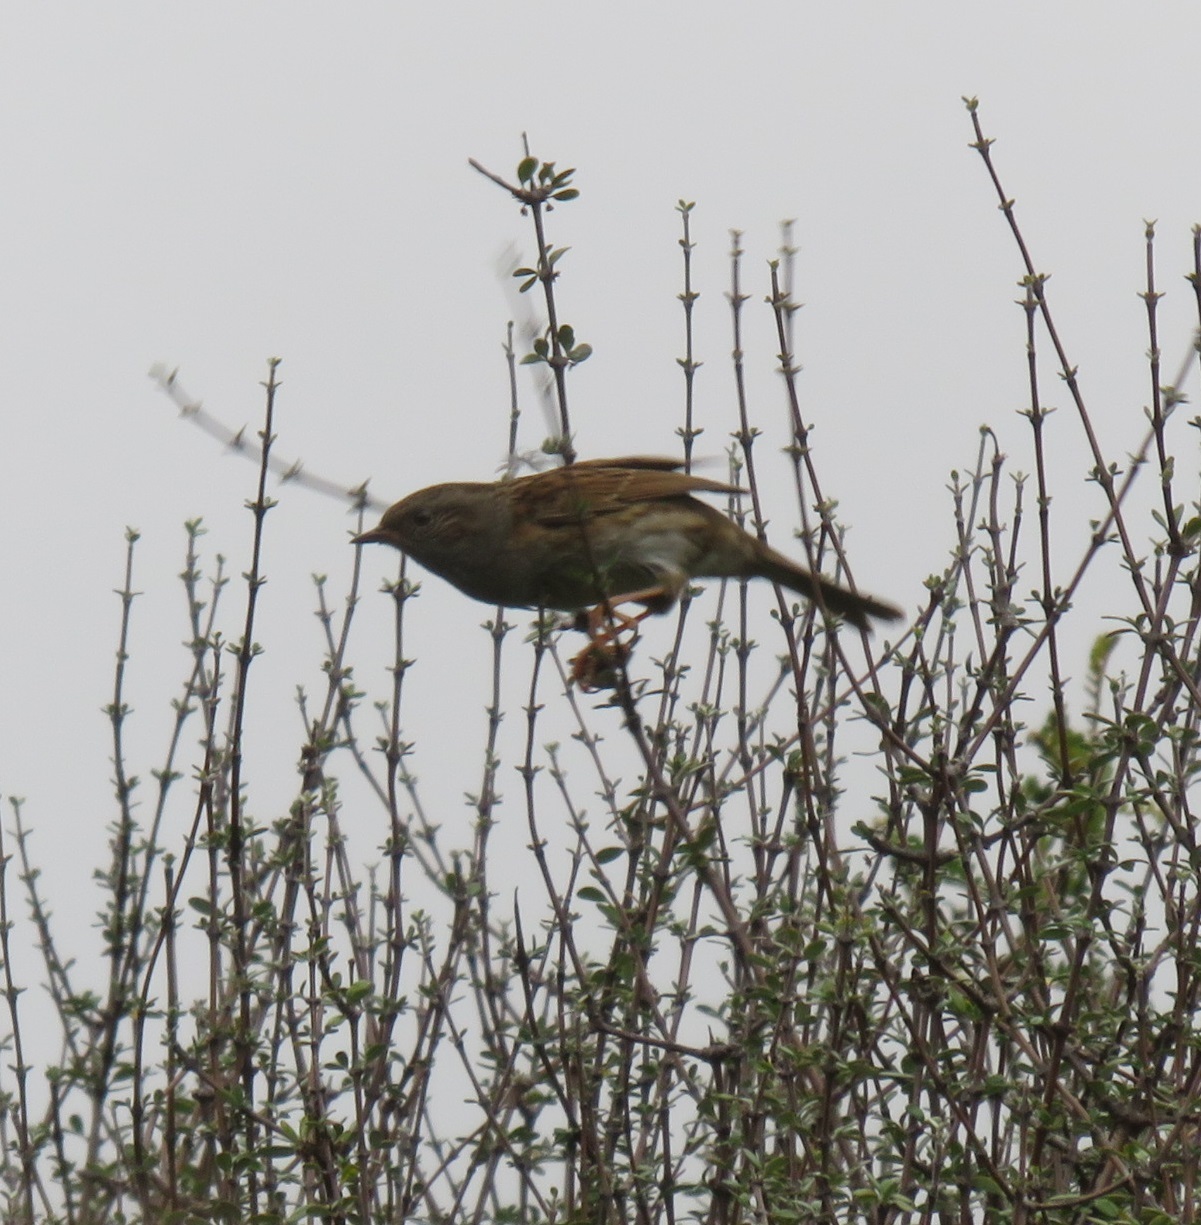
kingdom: Animalia
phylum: Chordata
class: Aves
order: Passeriformes
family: Prunellidae
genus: Prunella
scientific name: Prunella modularis
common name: Dunnock
